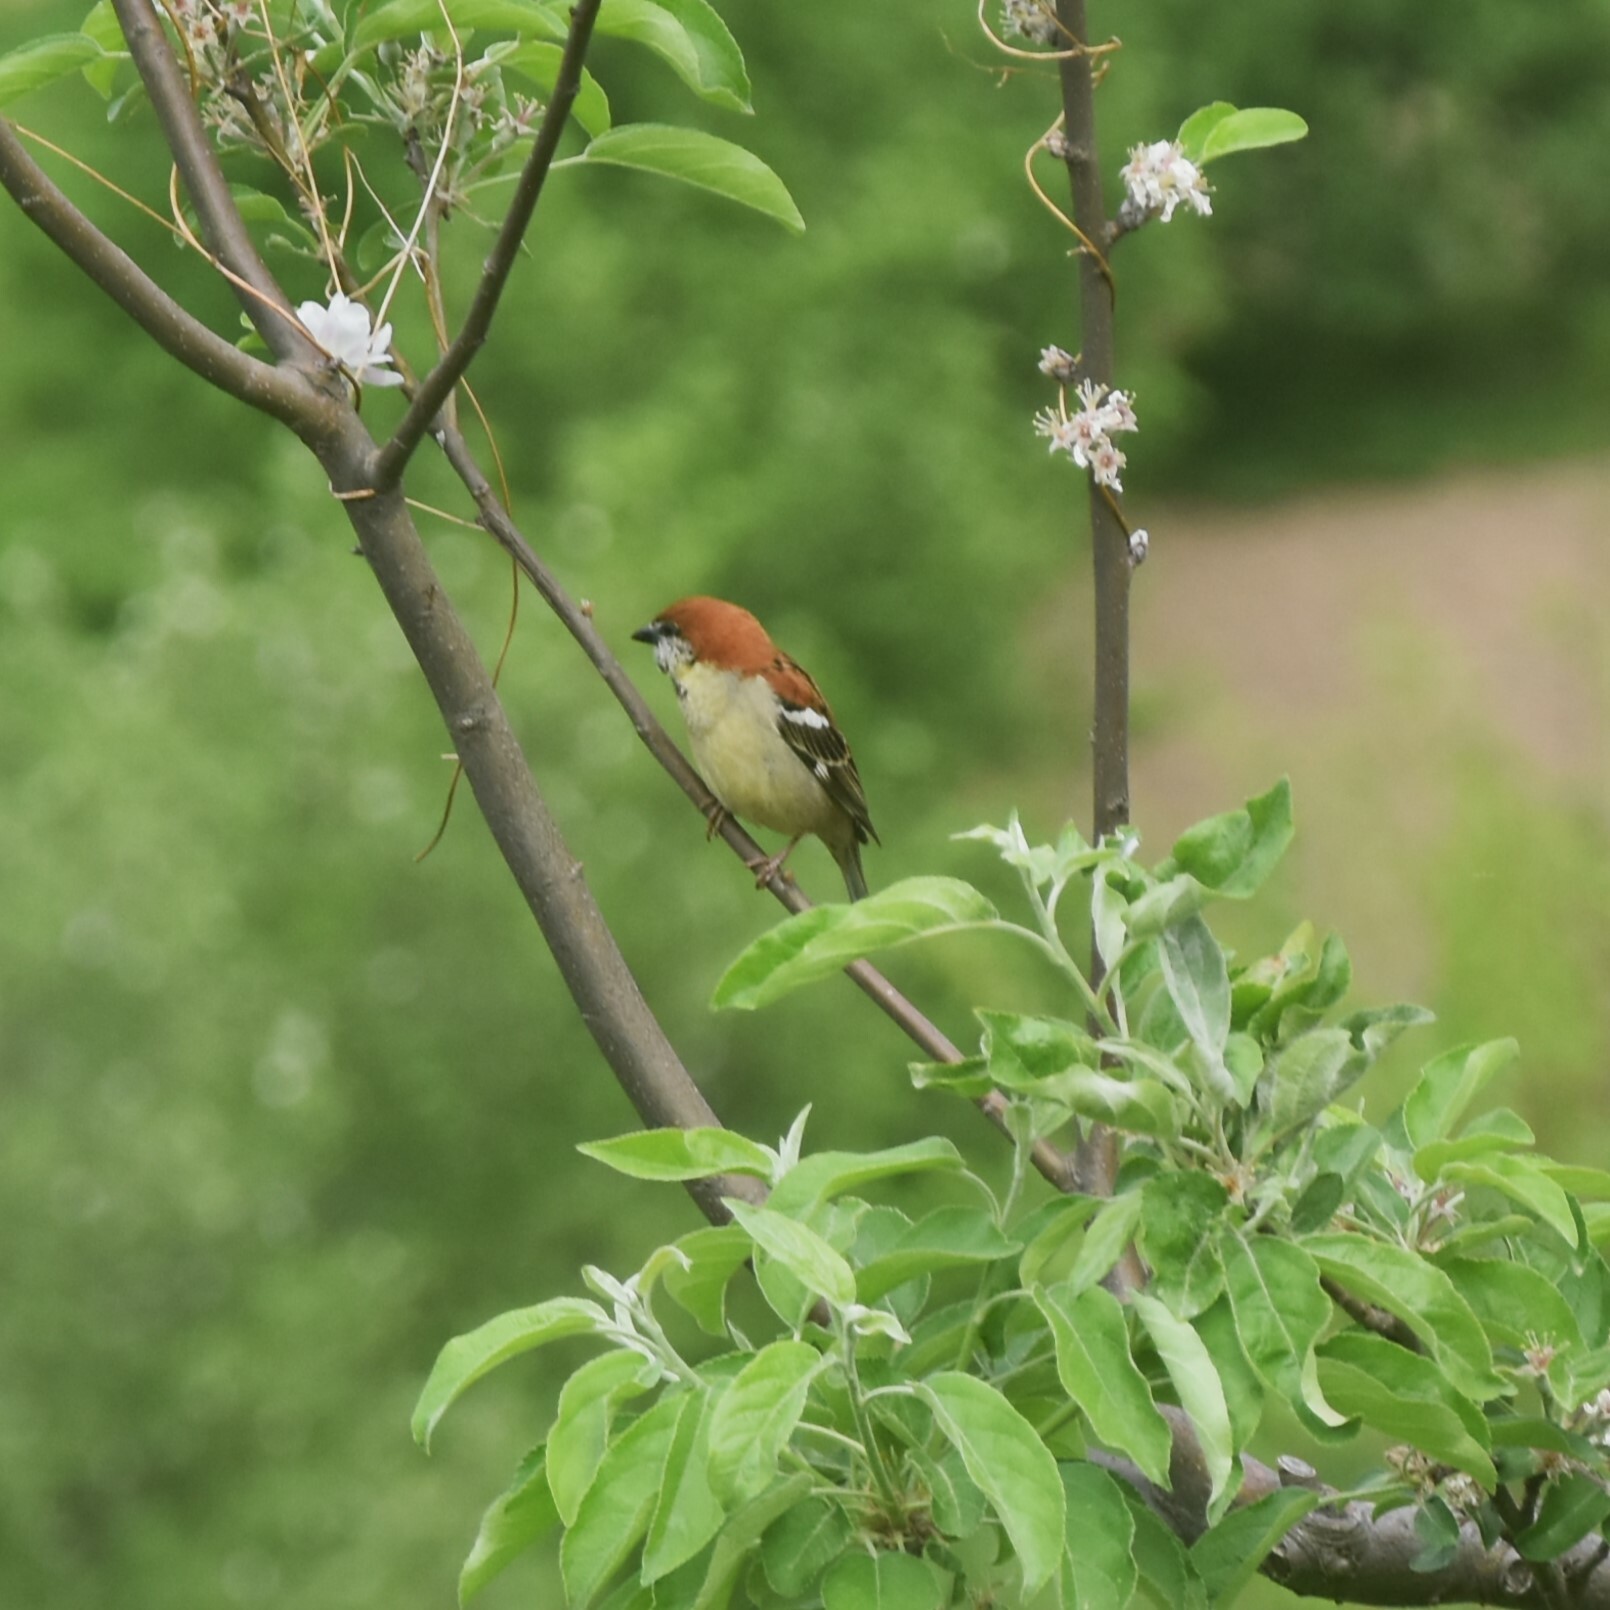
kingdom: Animalia
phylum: Chordata
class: Aves
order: Passeriformes
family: Passeridae
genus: Passer
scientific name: Passer cinnamomeus
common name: Russet sparrow
